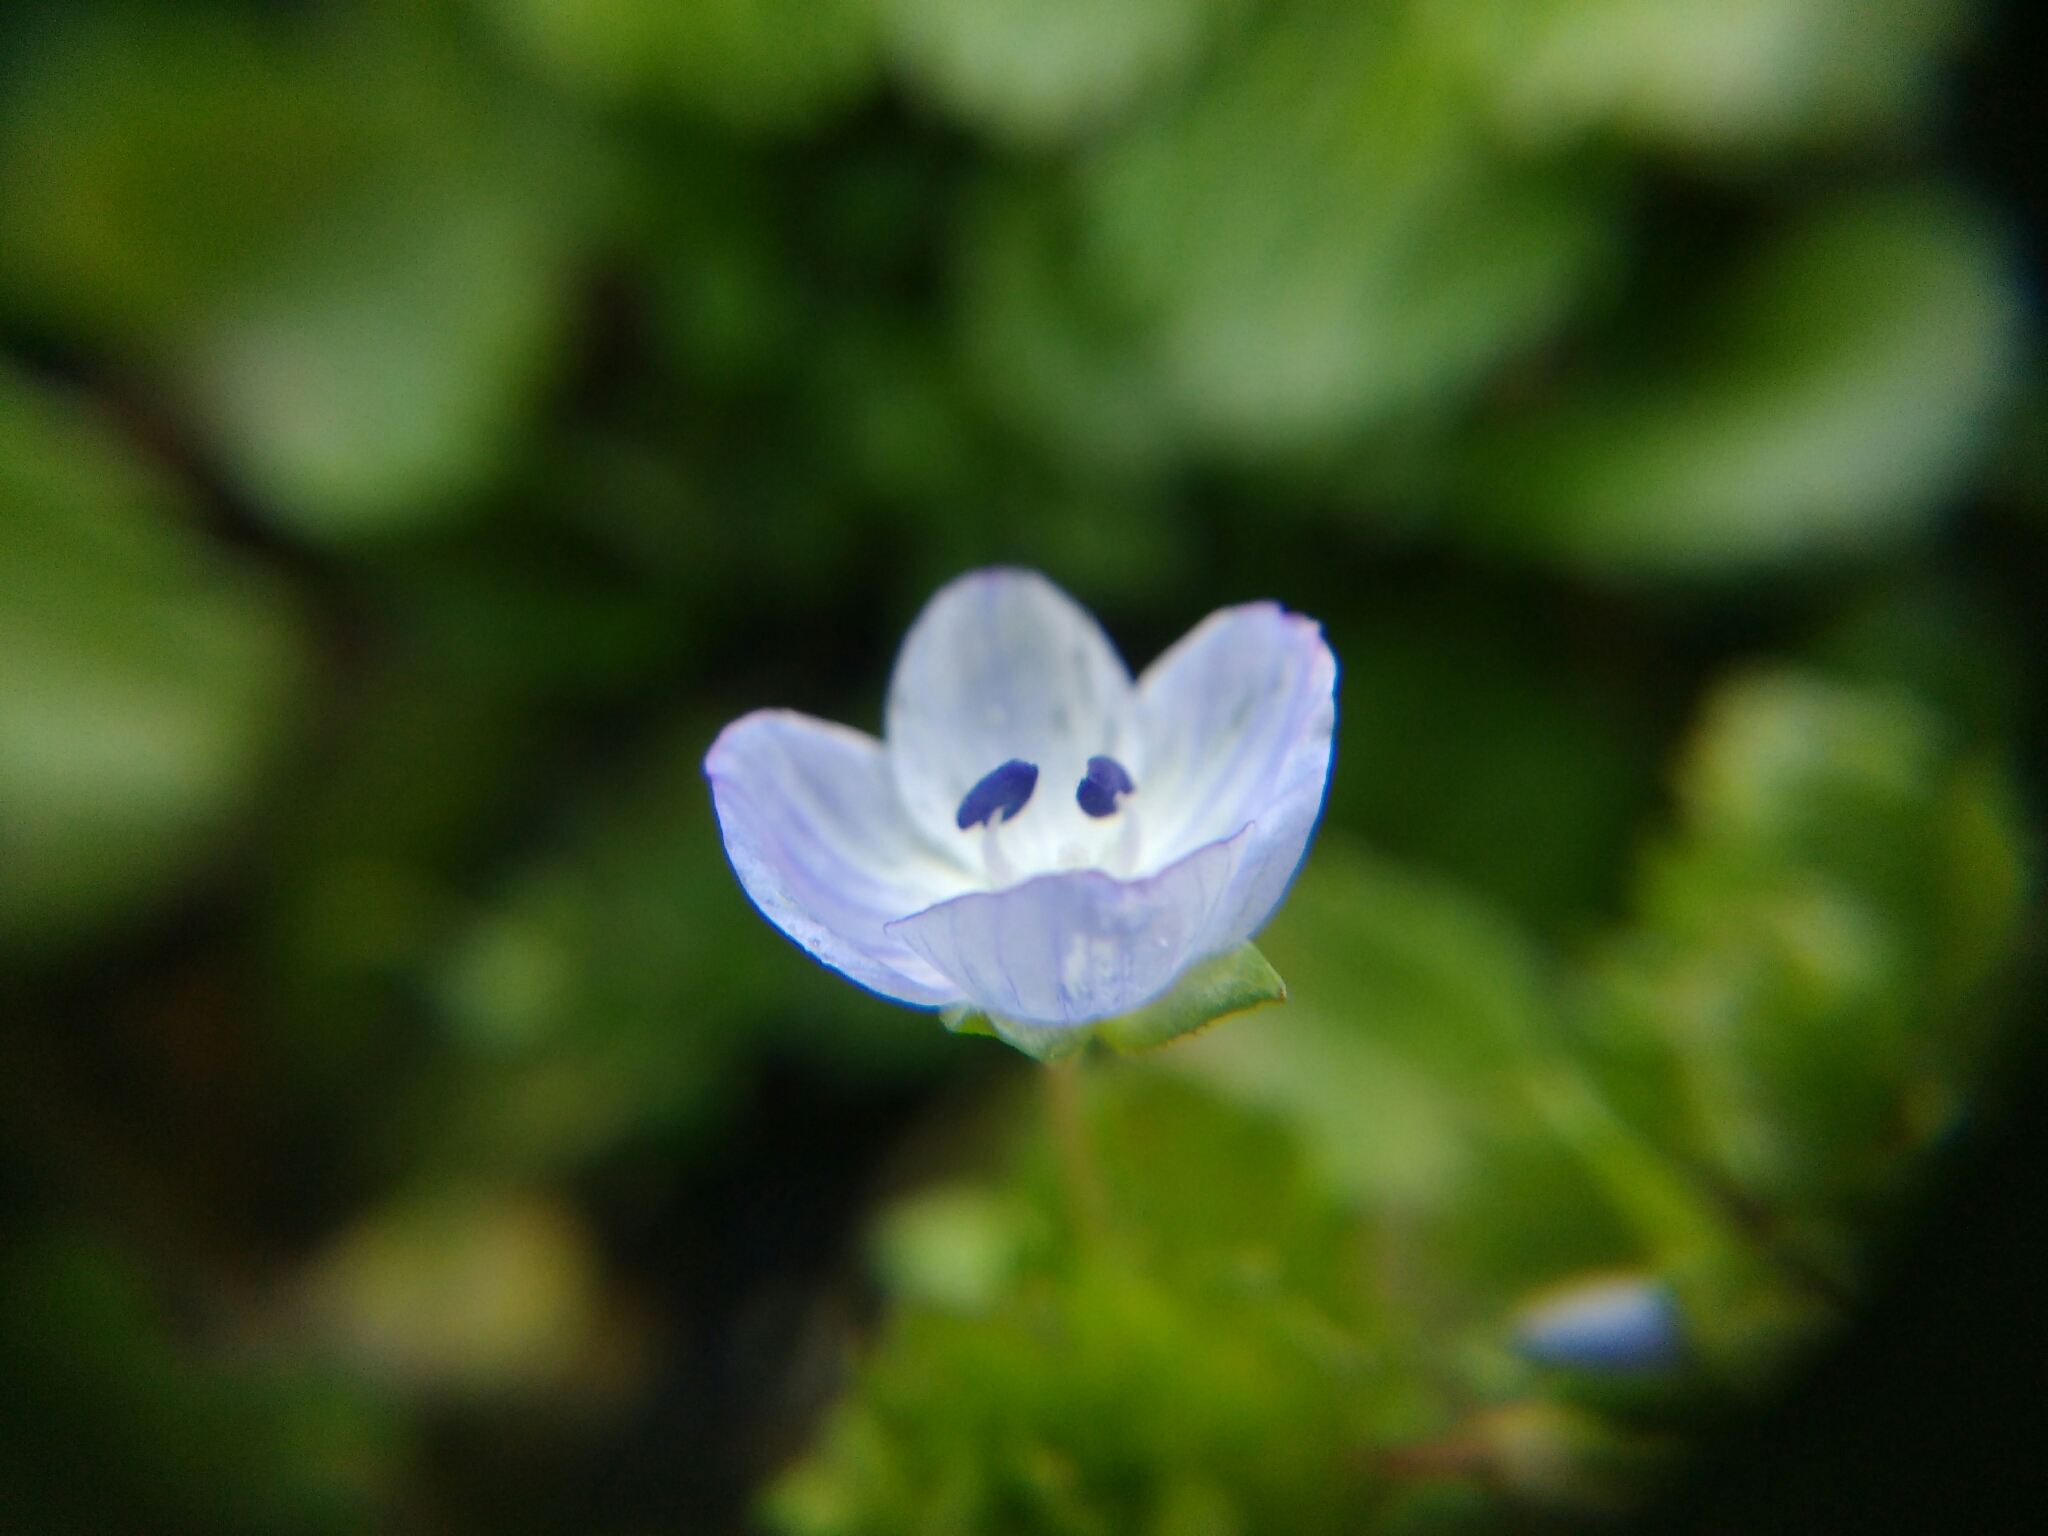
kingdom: Plantae
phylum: Tracheophyta
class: Magnoliopsida
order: Lamiales
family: Plantaginaceae
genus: Veronica
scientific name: Veronica persica
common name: Common field-speedwell
